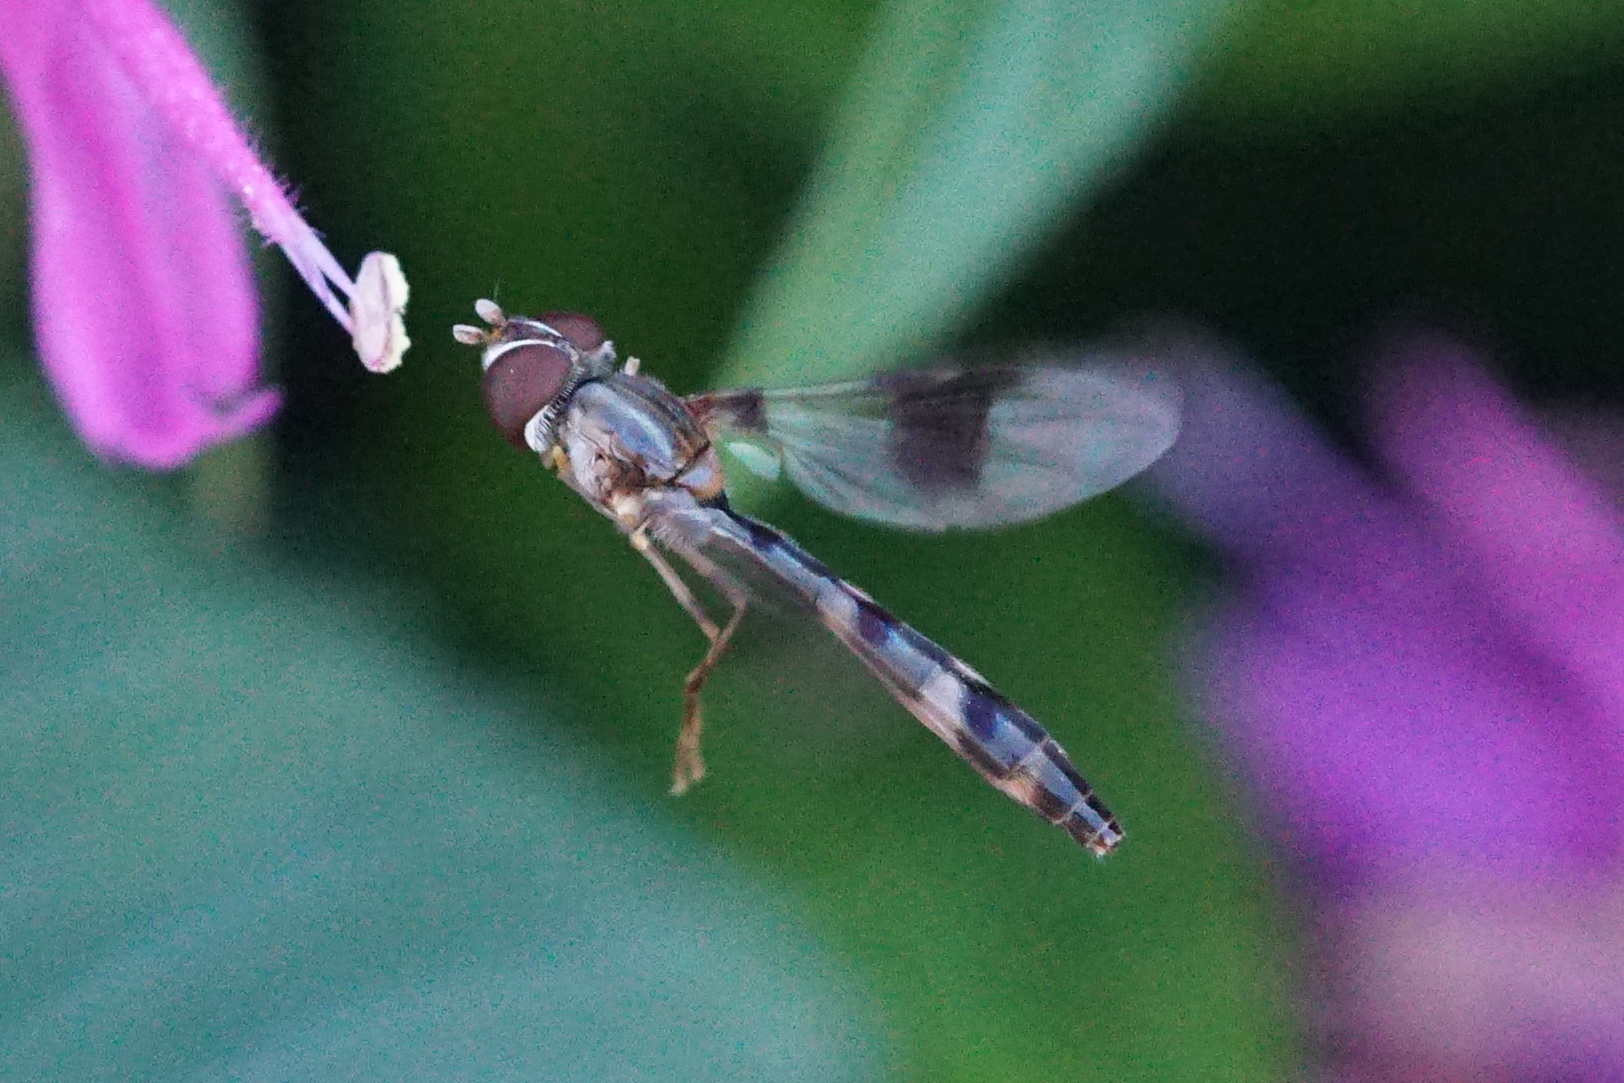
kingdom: Animalia
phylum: Arthropoda
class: Insecta
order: Diptera
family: Syrphidae
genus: Hypocritanus
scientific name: Hypocritanus fascipennis
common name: Eastern band-winged hover fly
